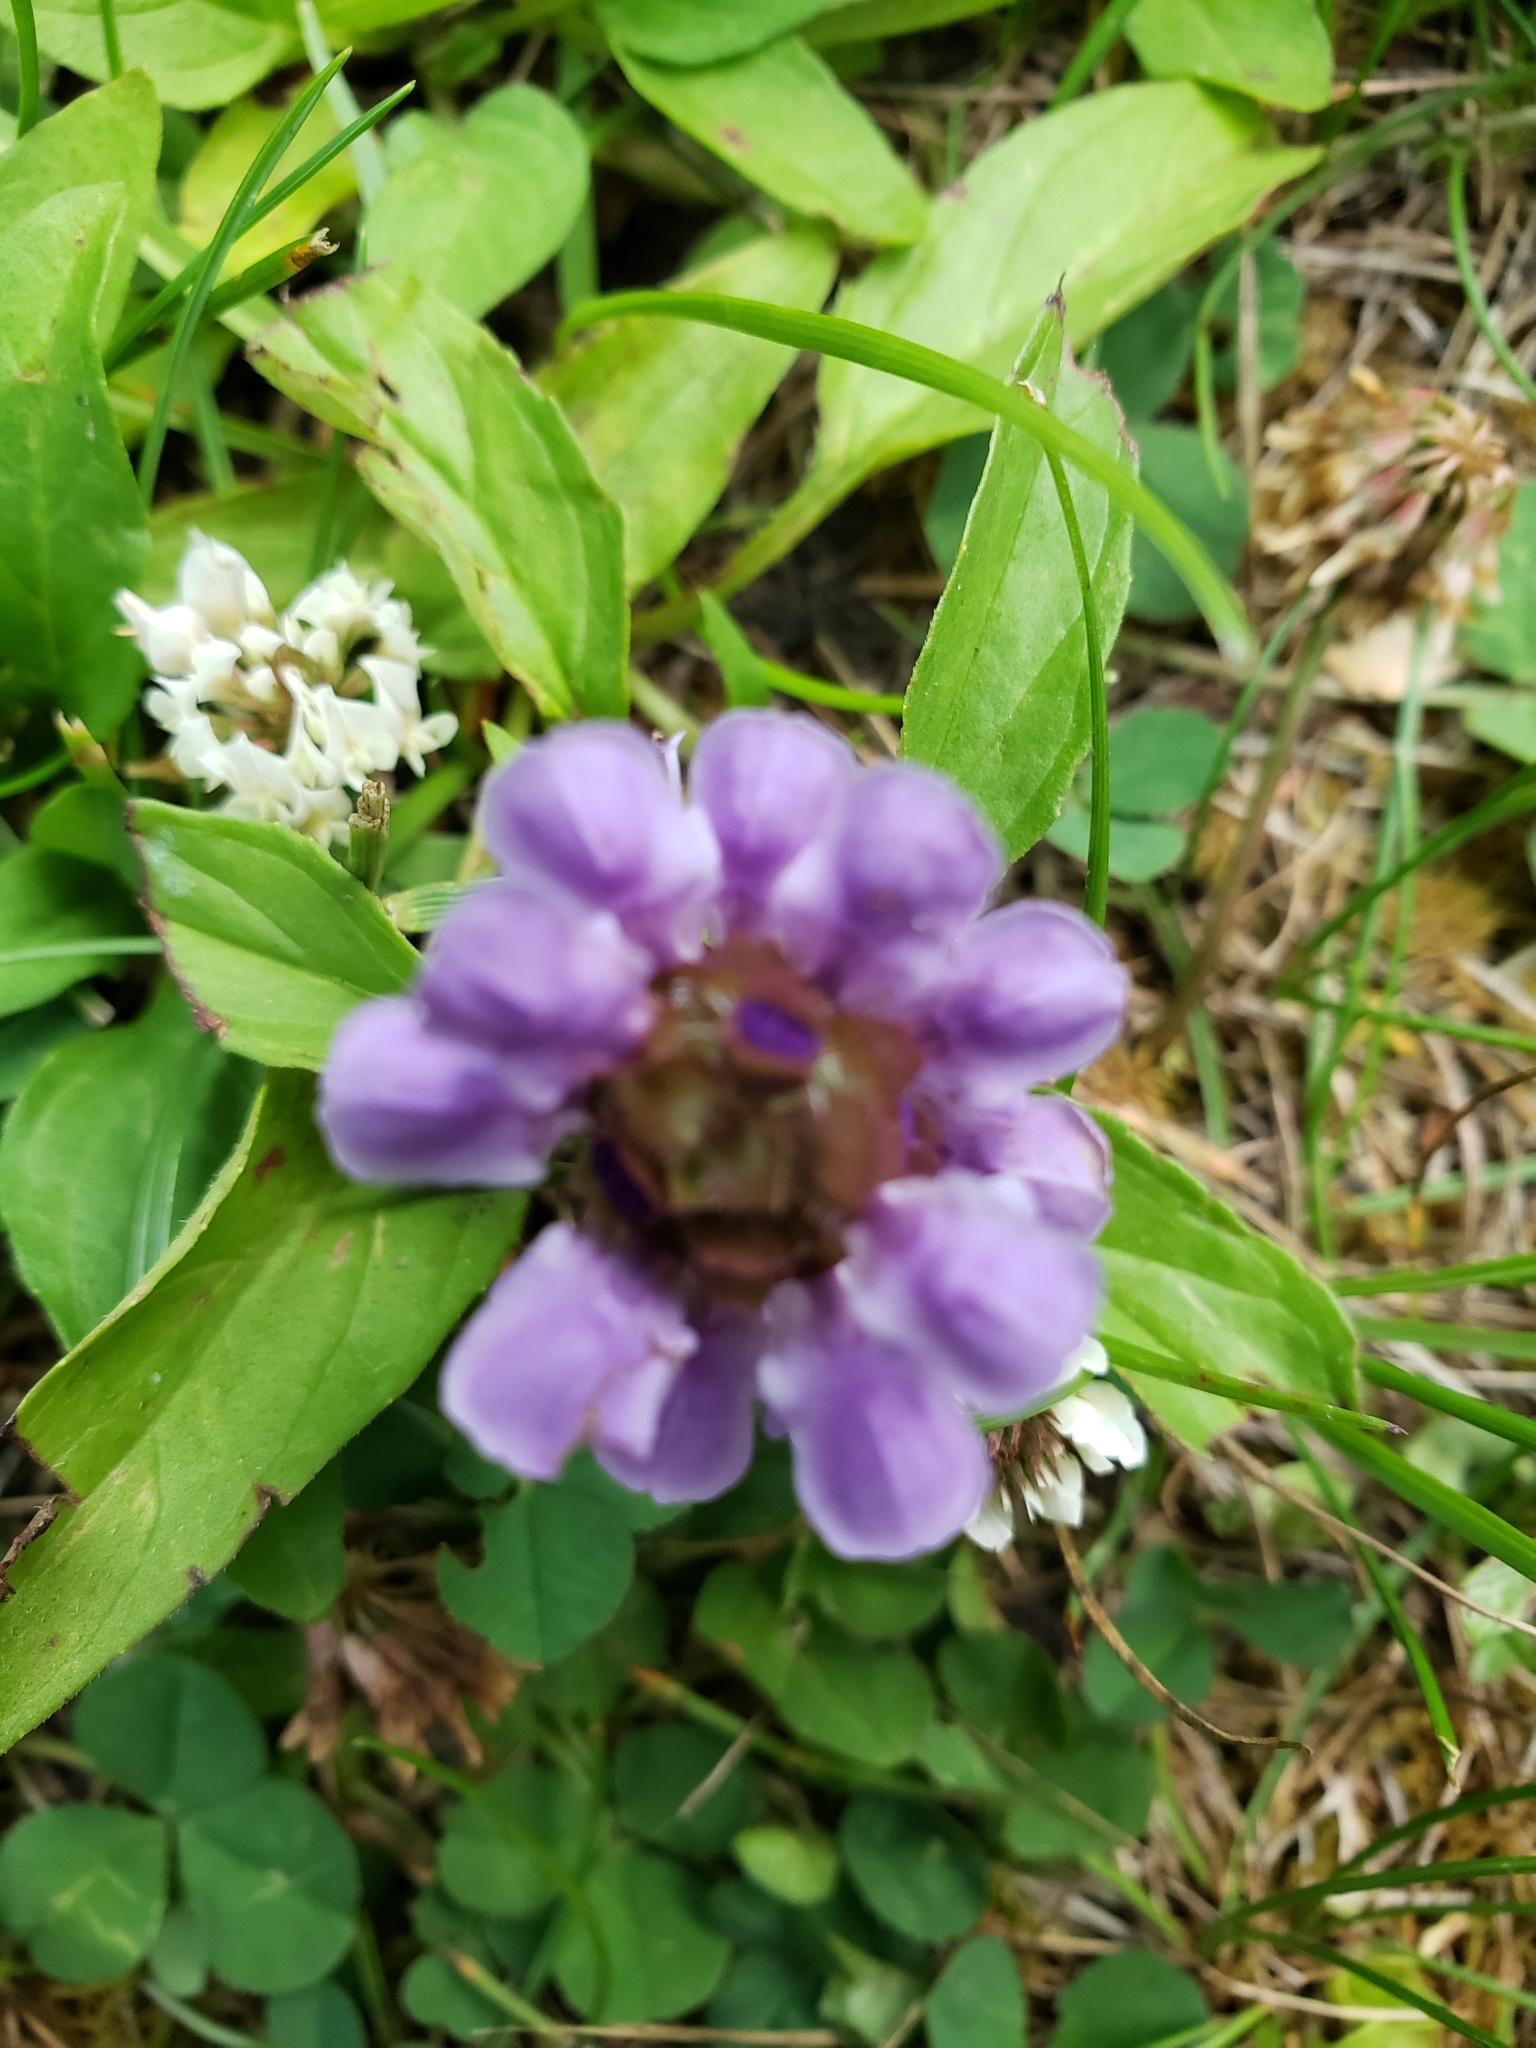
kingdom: Plantae
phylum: Tracheophyta
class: Magnoliopsida
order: Lamiales
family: Lamiaceae
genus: Prunella
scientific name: Prunella vulgaris
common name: Heal-all
